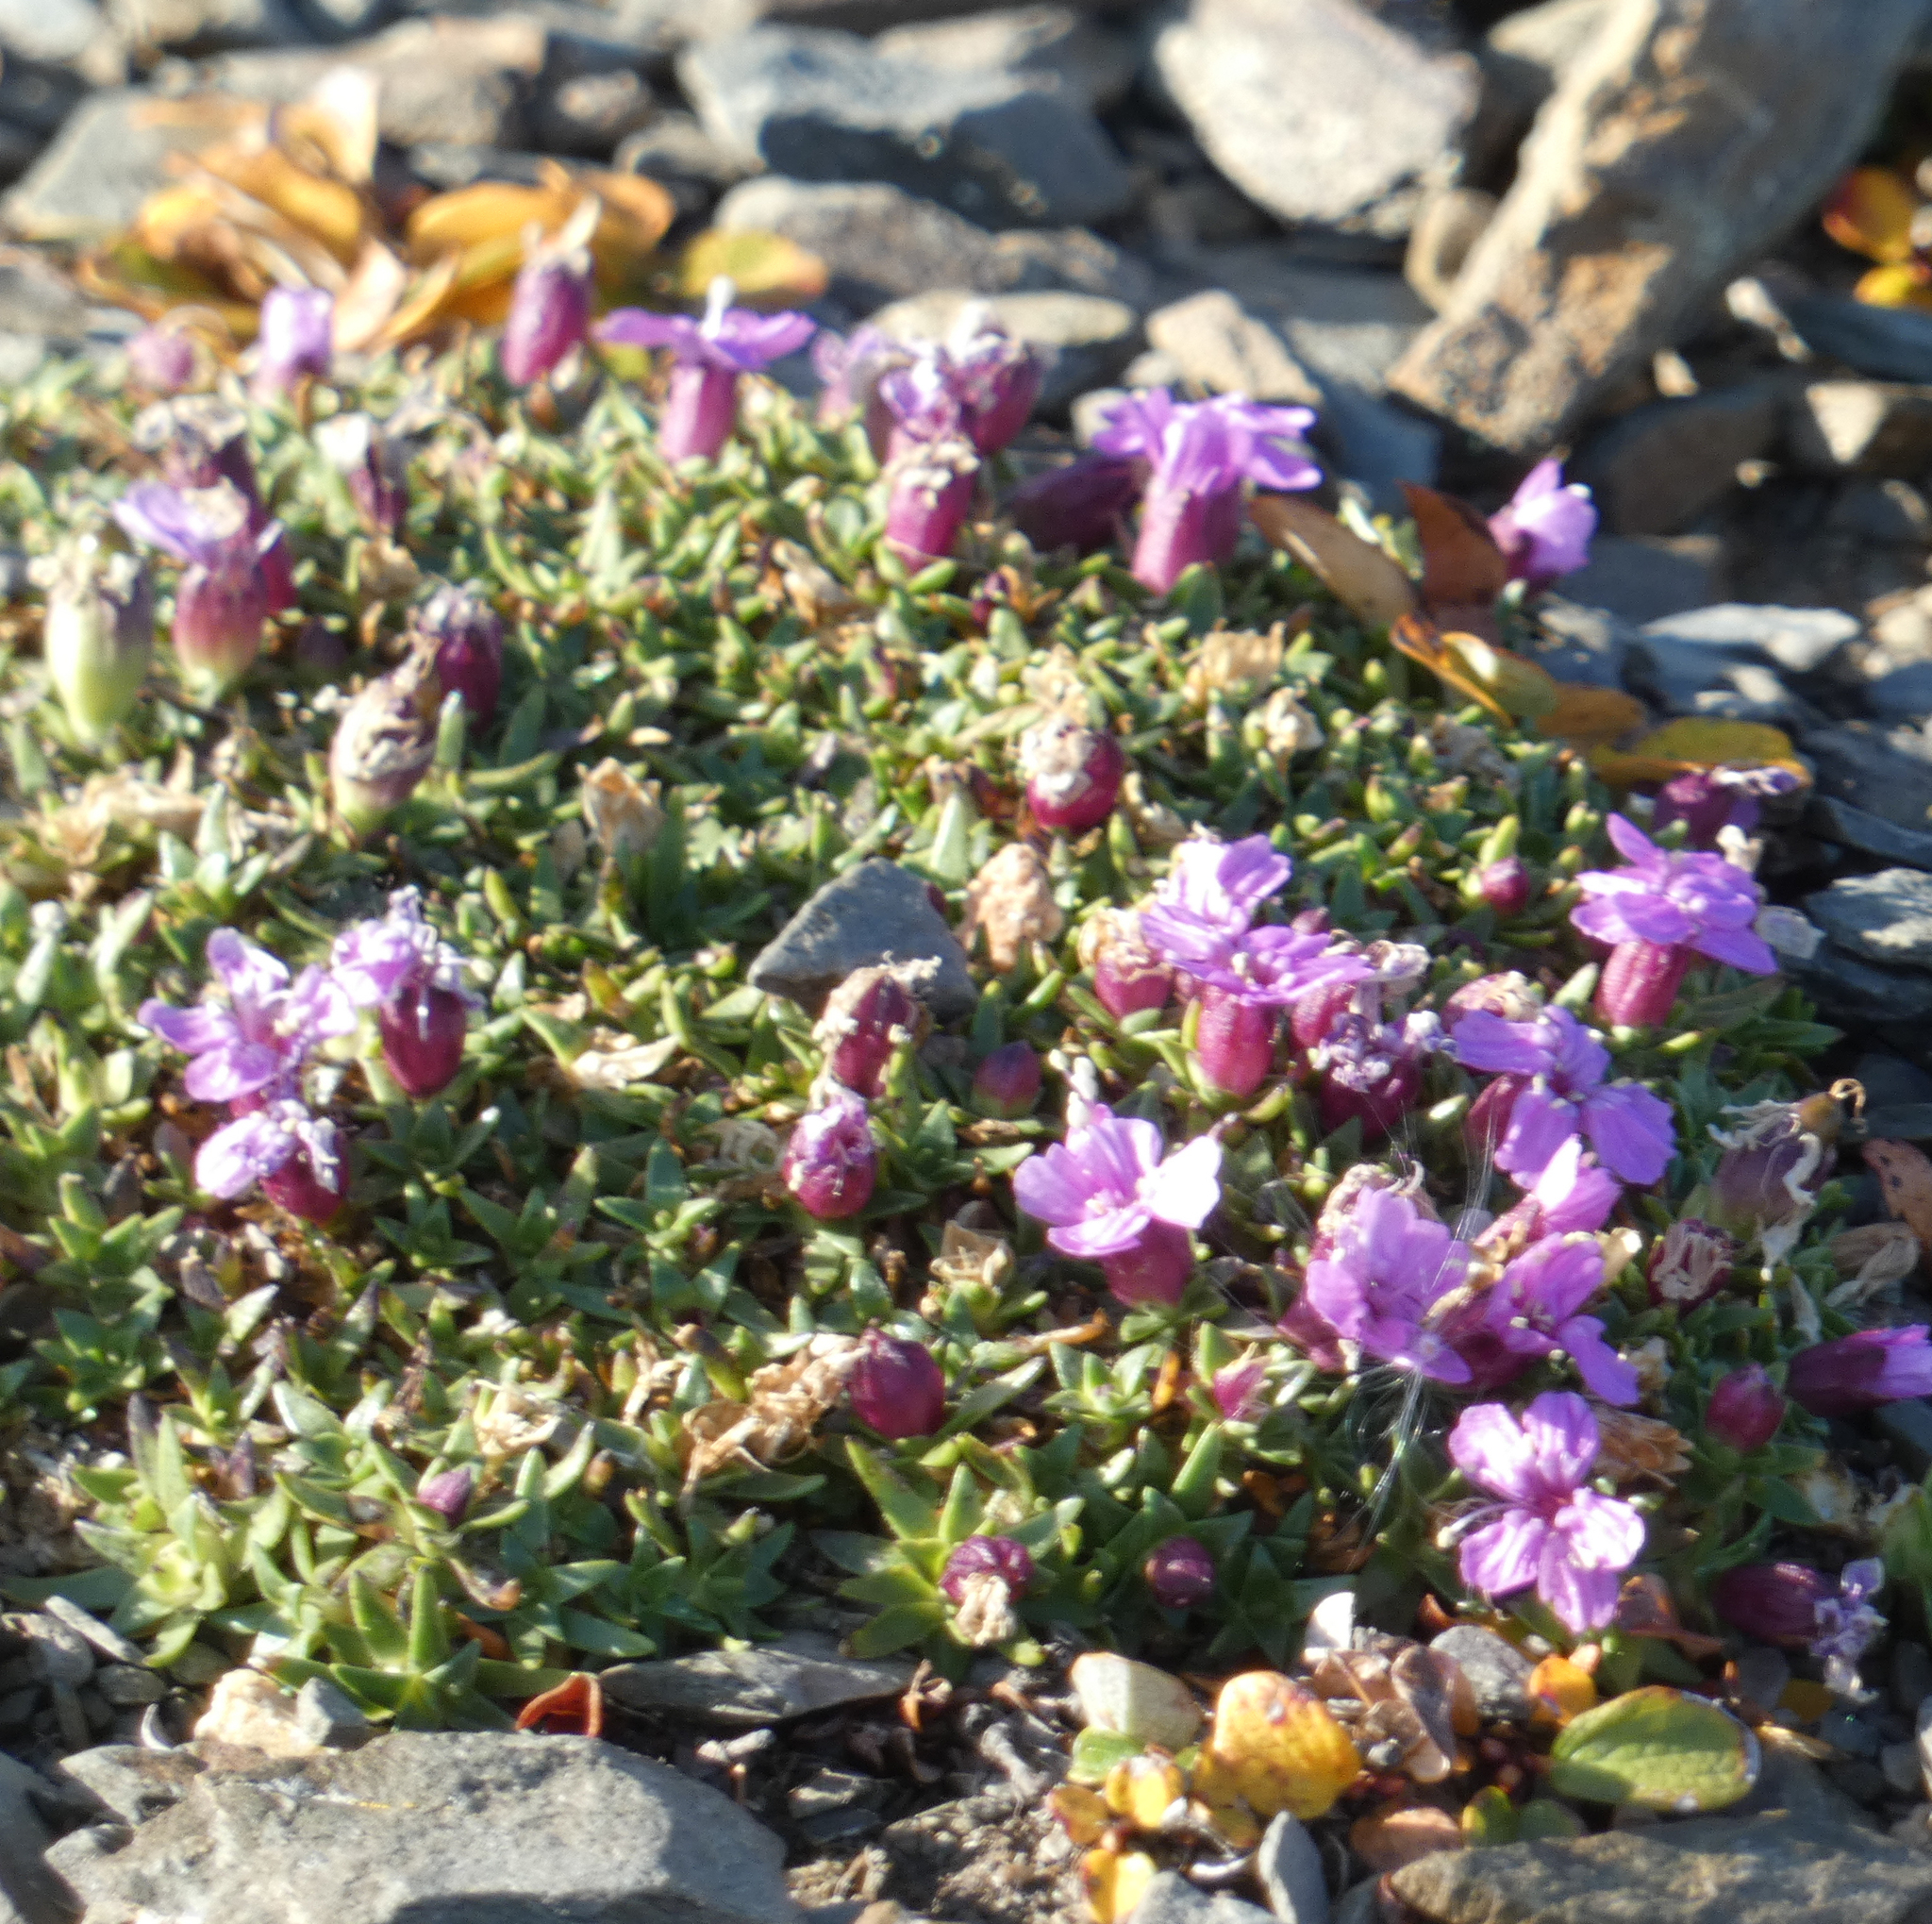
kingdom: Plantae
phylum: Tracheophyta
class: Magnoliopsida
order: Caryophyllales
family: Caryophyllaceae
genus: Silene
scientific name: Silene acaulis
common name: Moss campion
